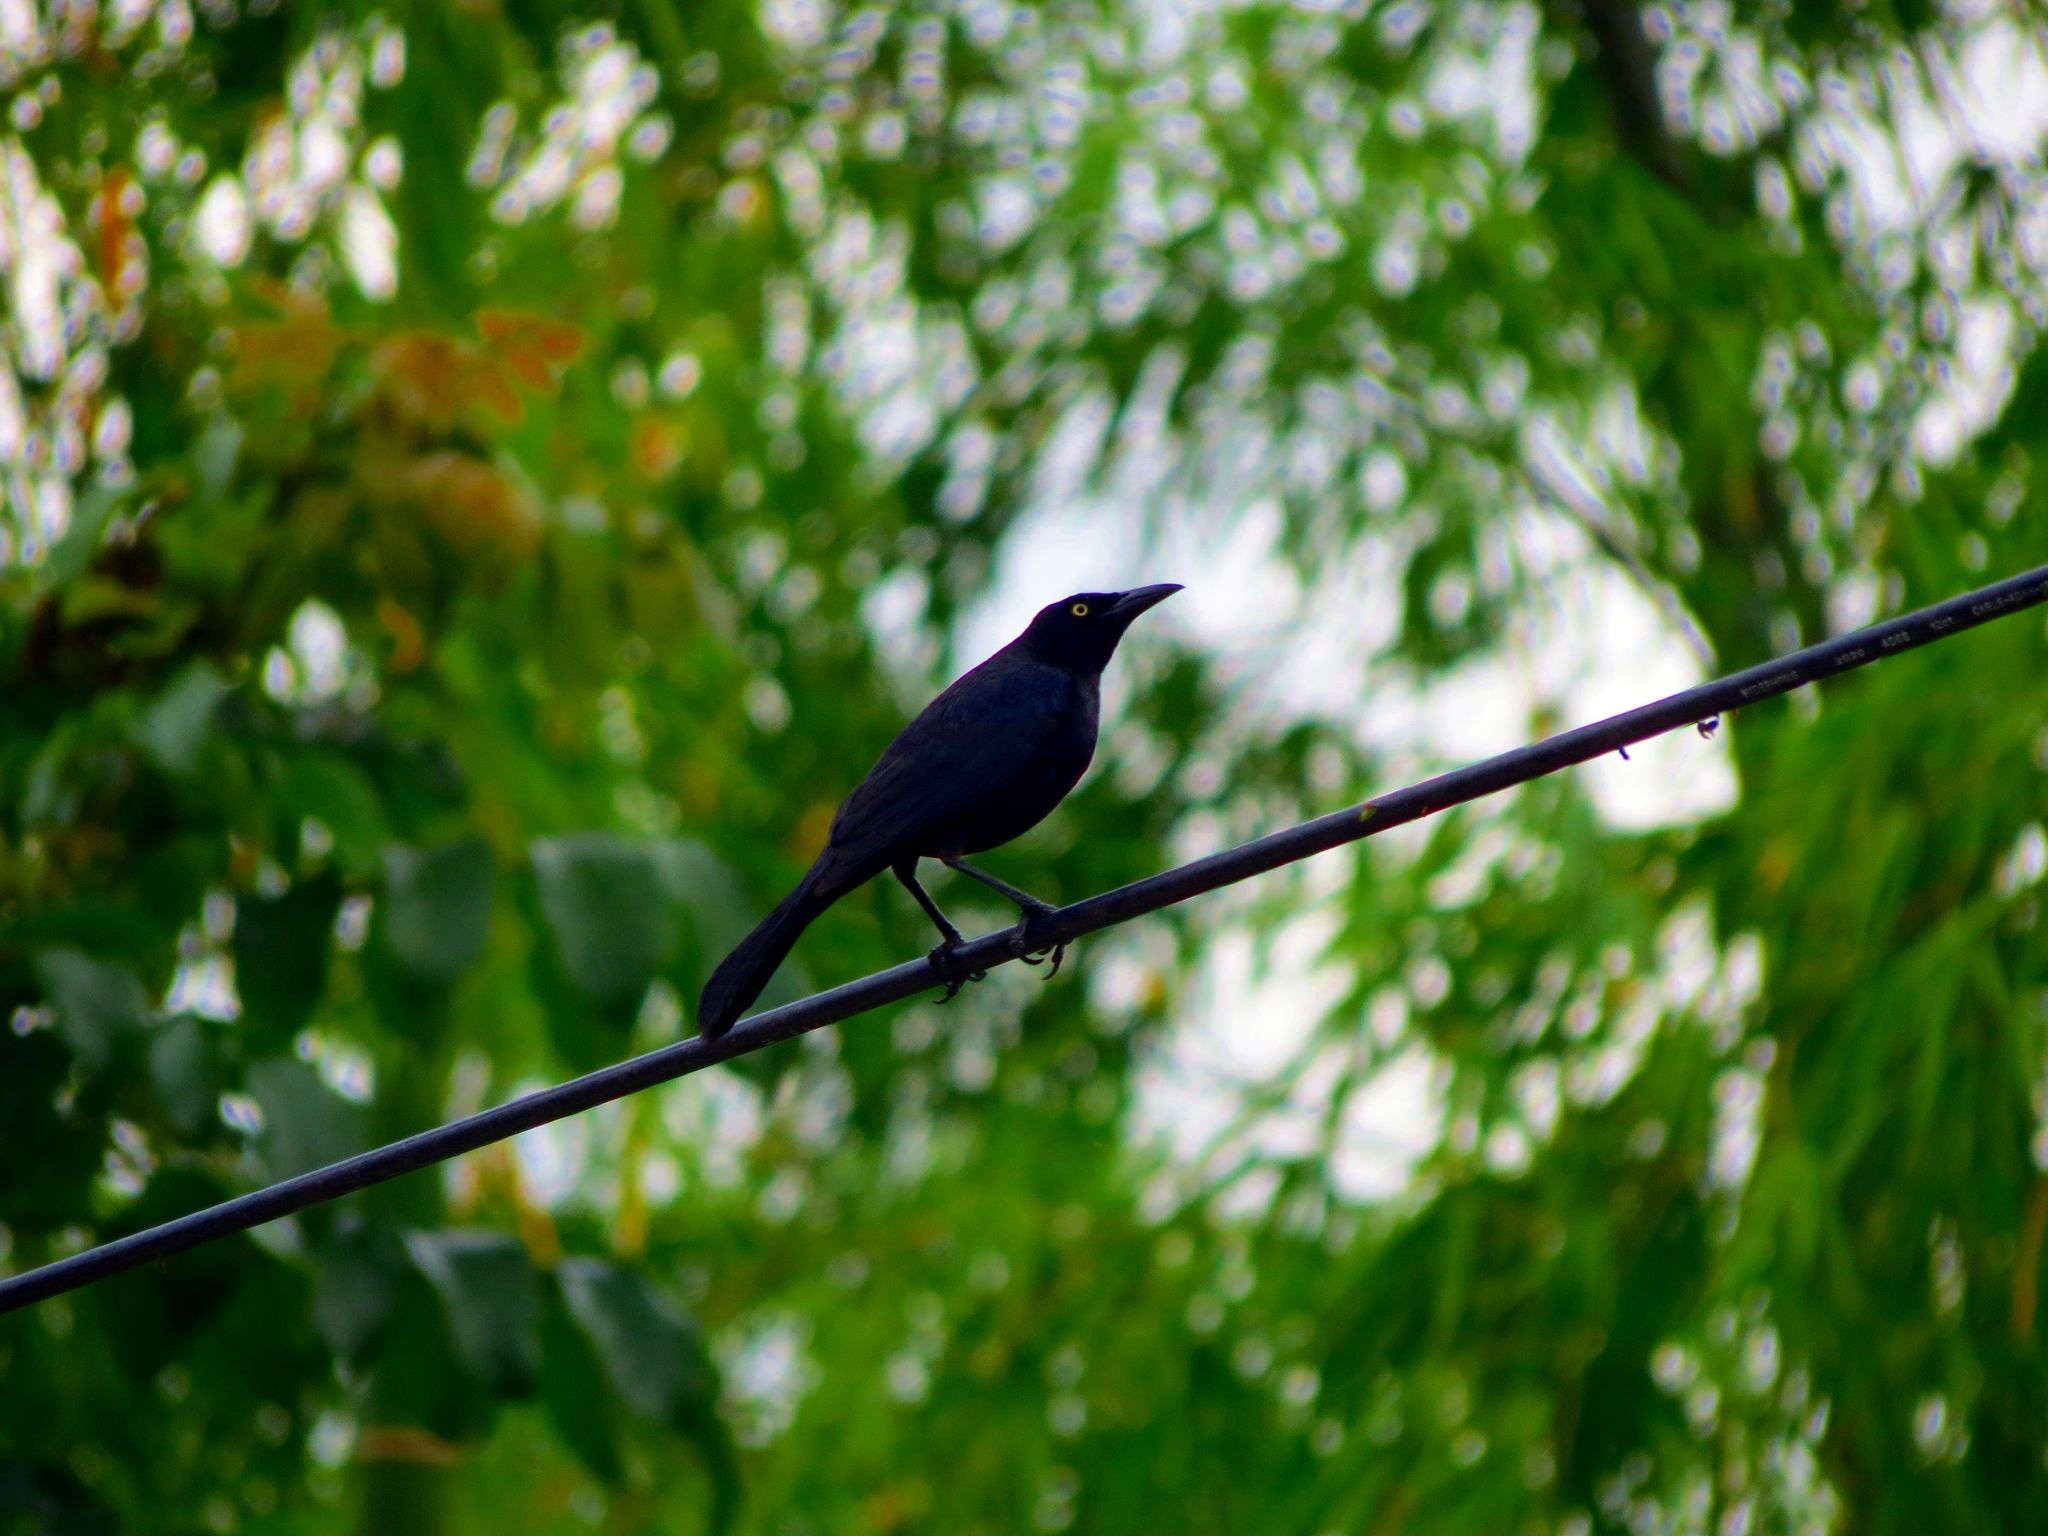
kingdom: Animalia
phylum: Chordata
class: Aves
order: Passeriformes
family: Icteridae
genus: Quiscalus
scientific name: Quiscalus lugubris
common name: Carib grackle
